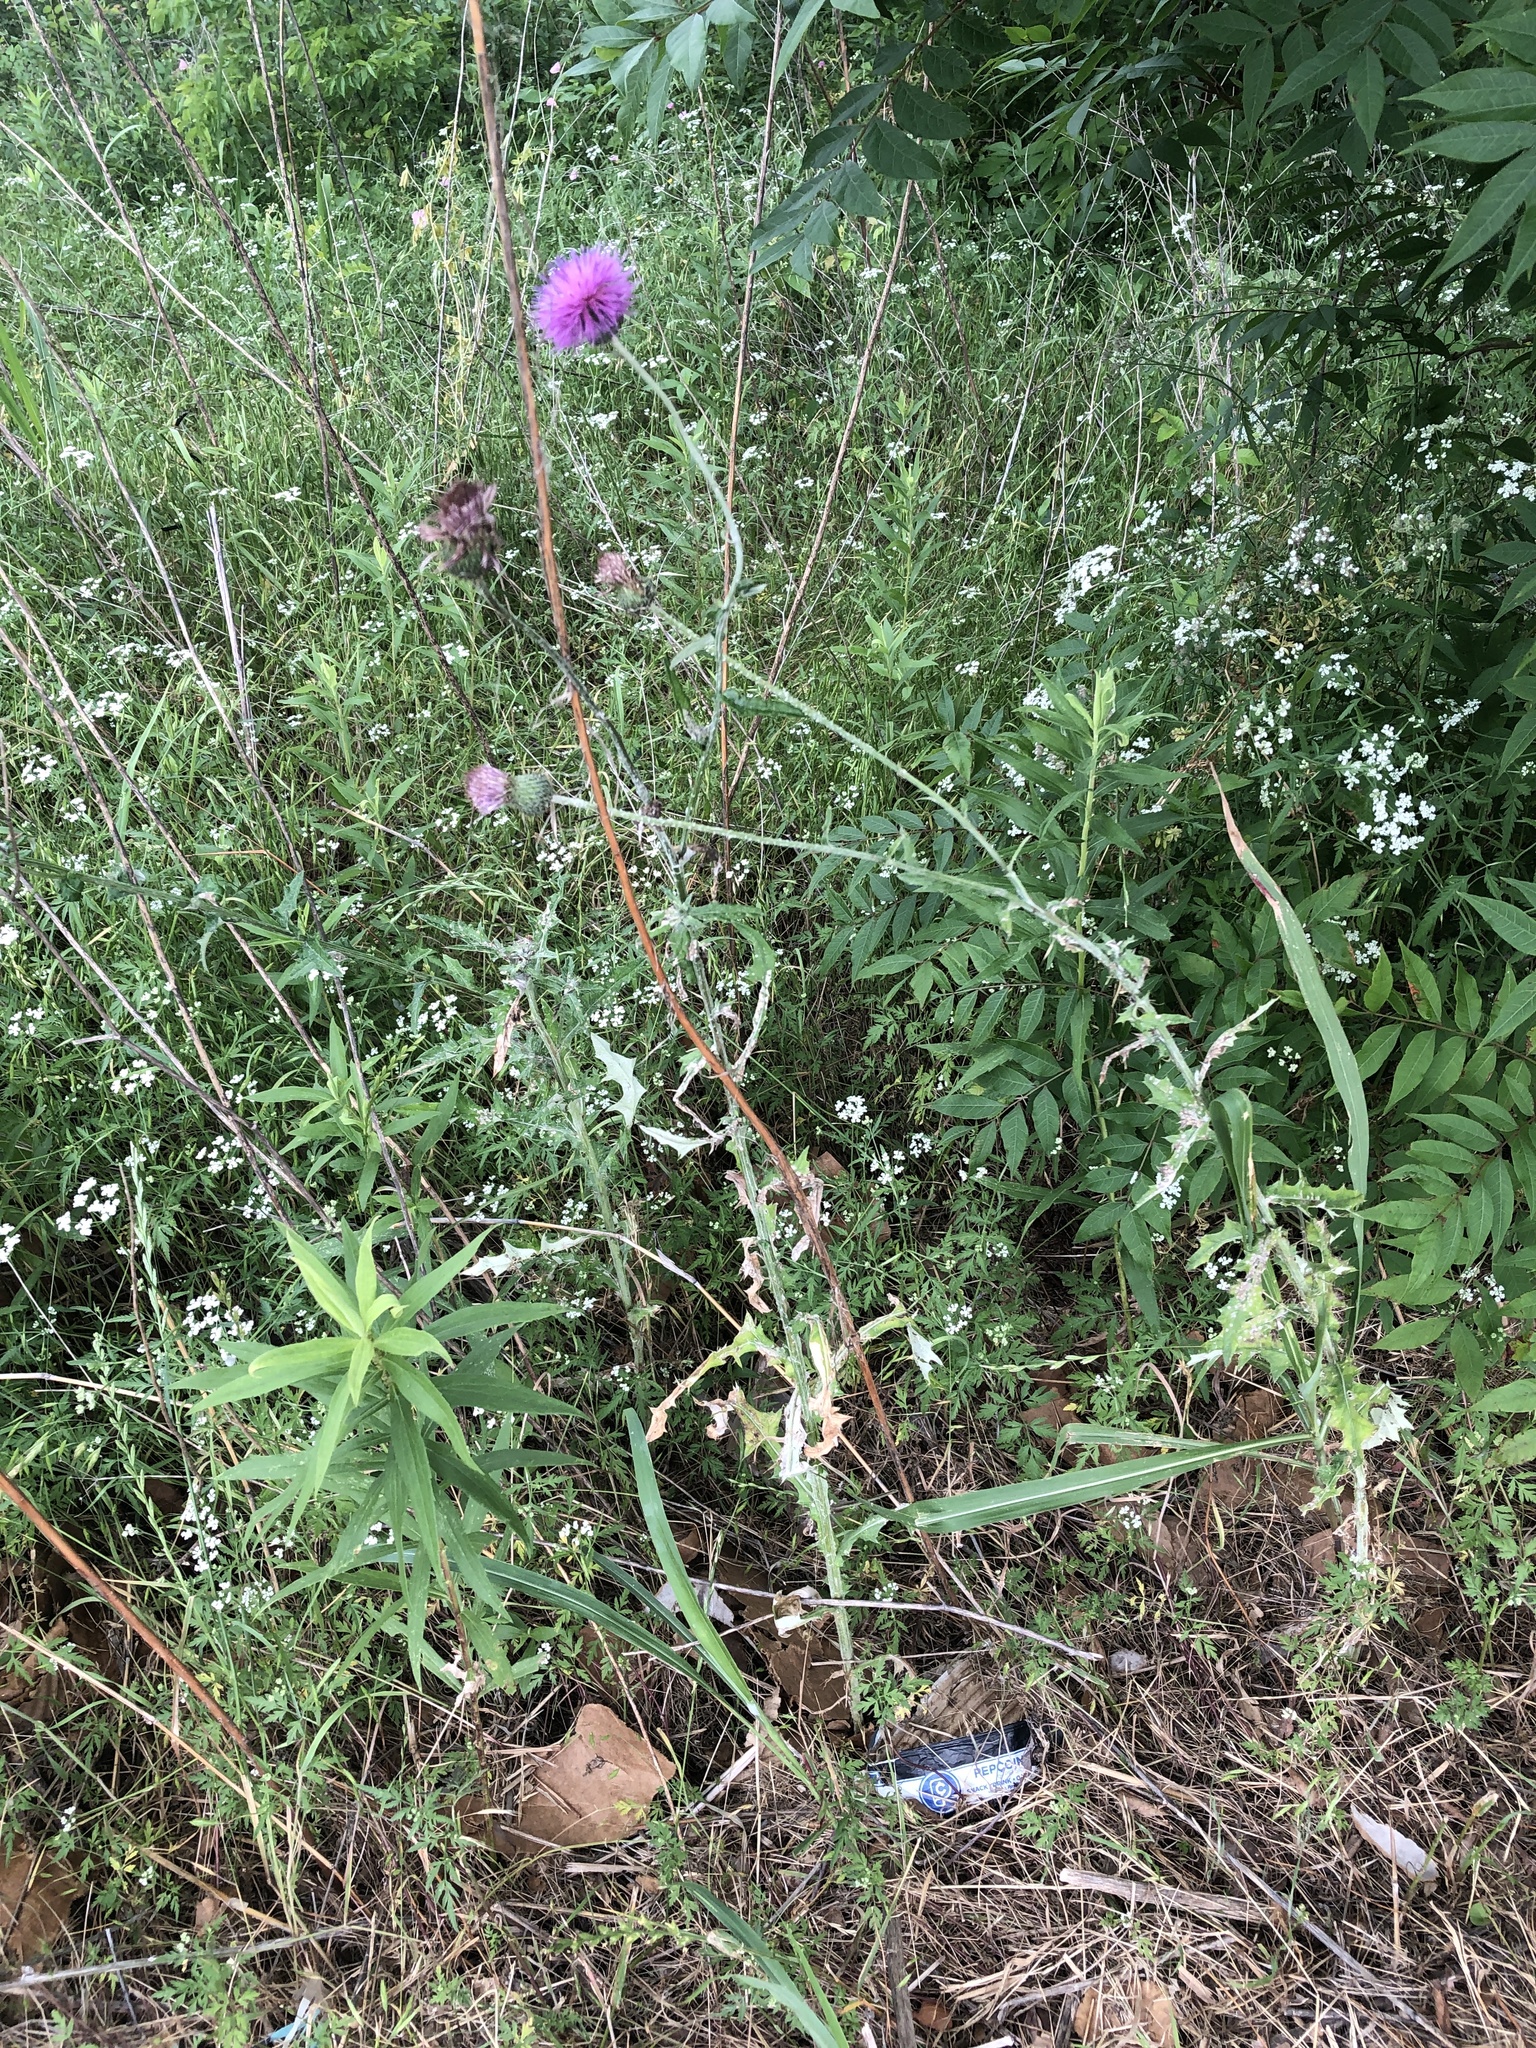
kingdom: Plantae
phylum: Tracheophyta
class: Magnoliopsida
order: Asterales
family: Asteraceae
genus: Cirsium
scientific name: Cirsium texanum
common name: Texas purple thistle
